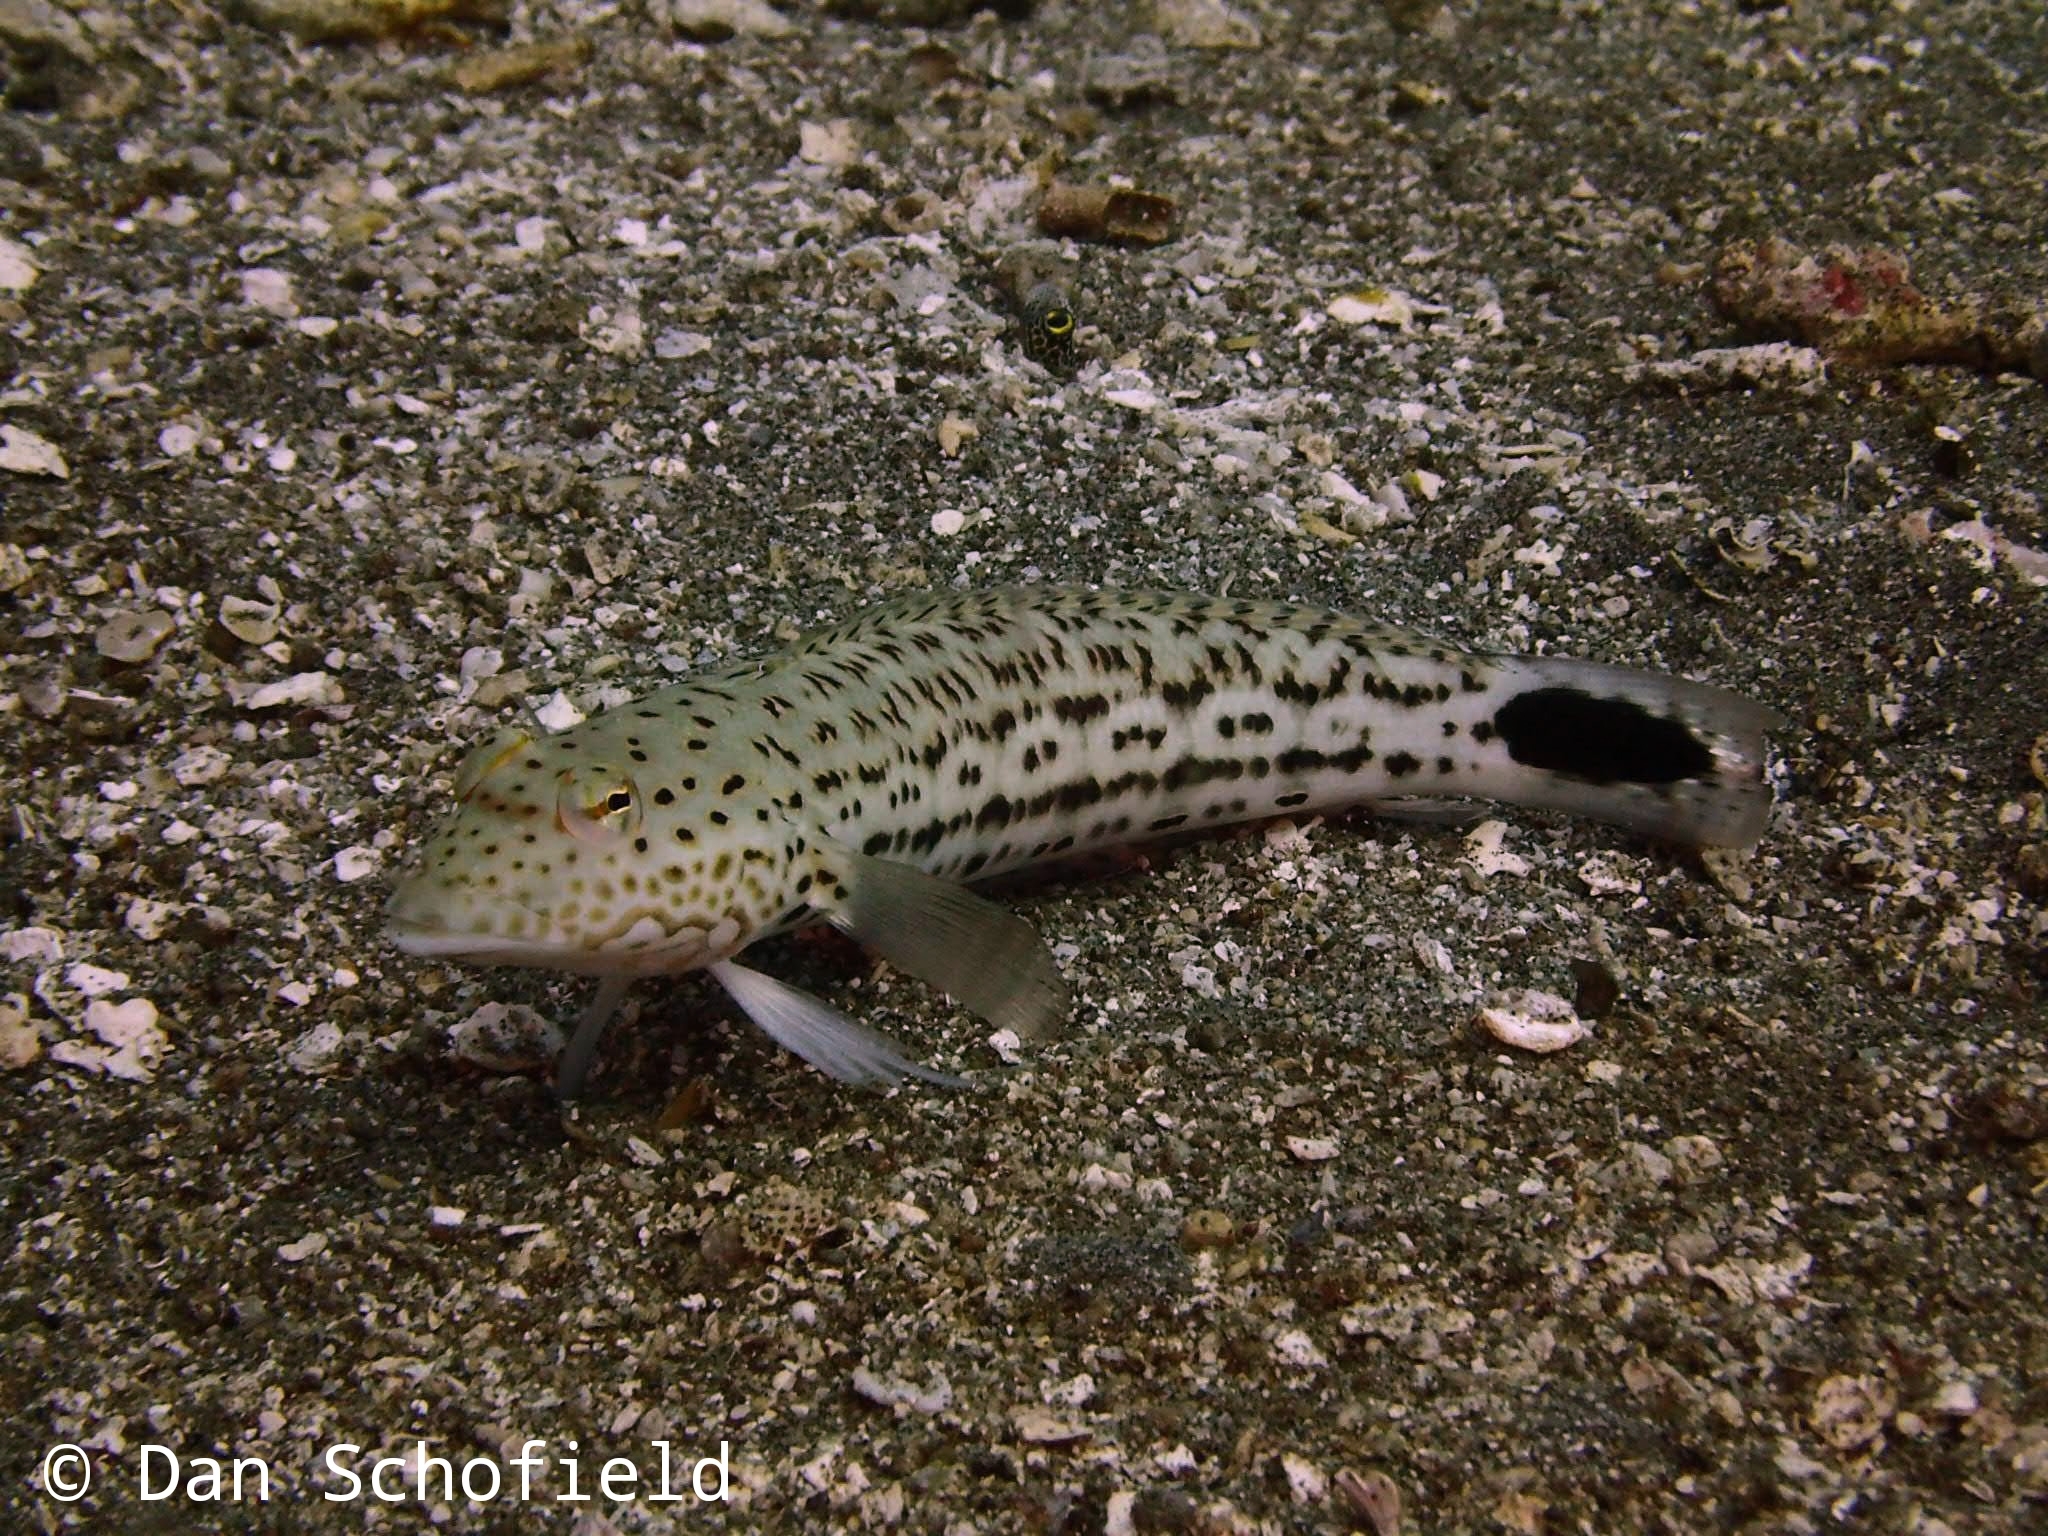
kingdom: Animalia
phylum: Chordata
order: Perciformes
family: Pinguipedidae
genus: Parapercis
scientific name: Parapercis pacifica
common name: Speckled sandperch
